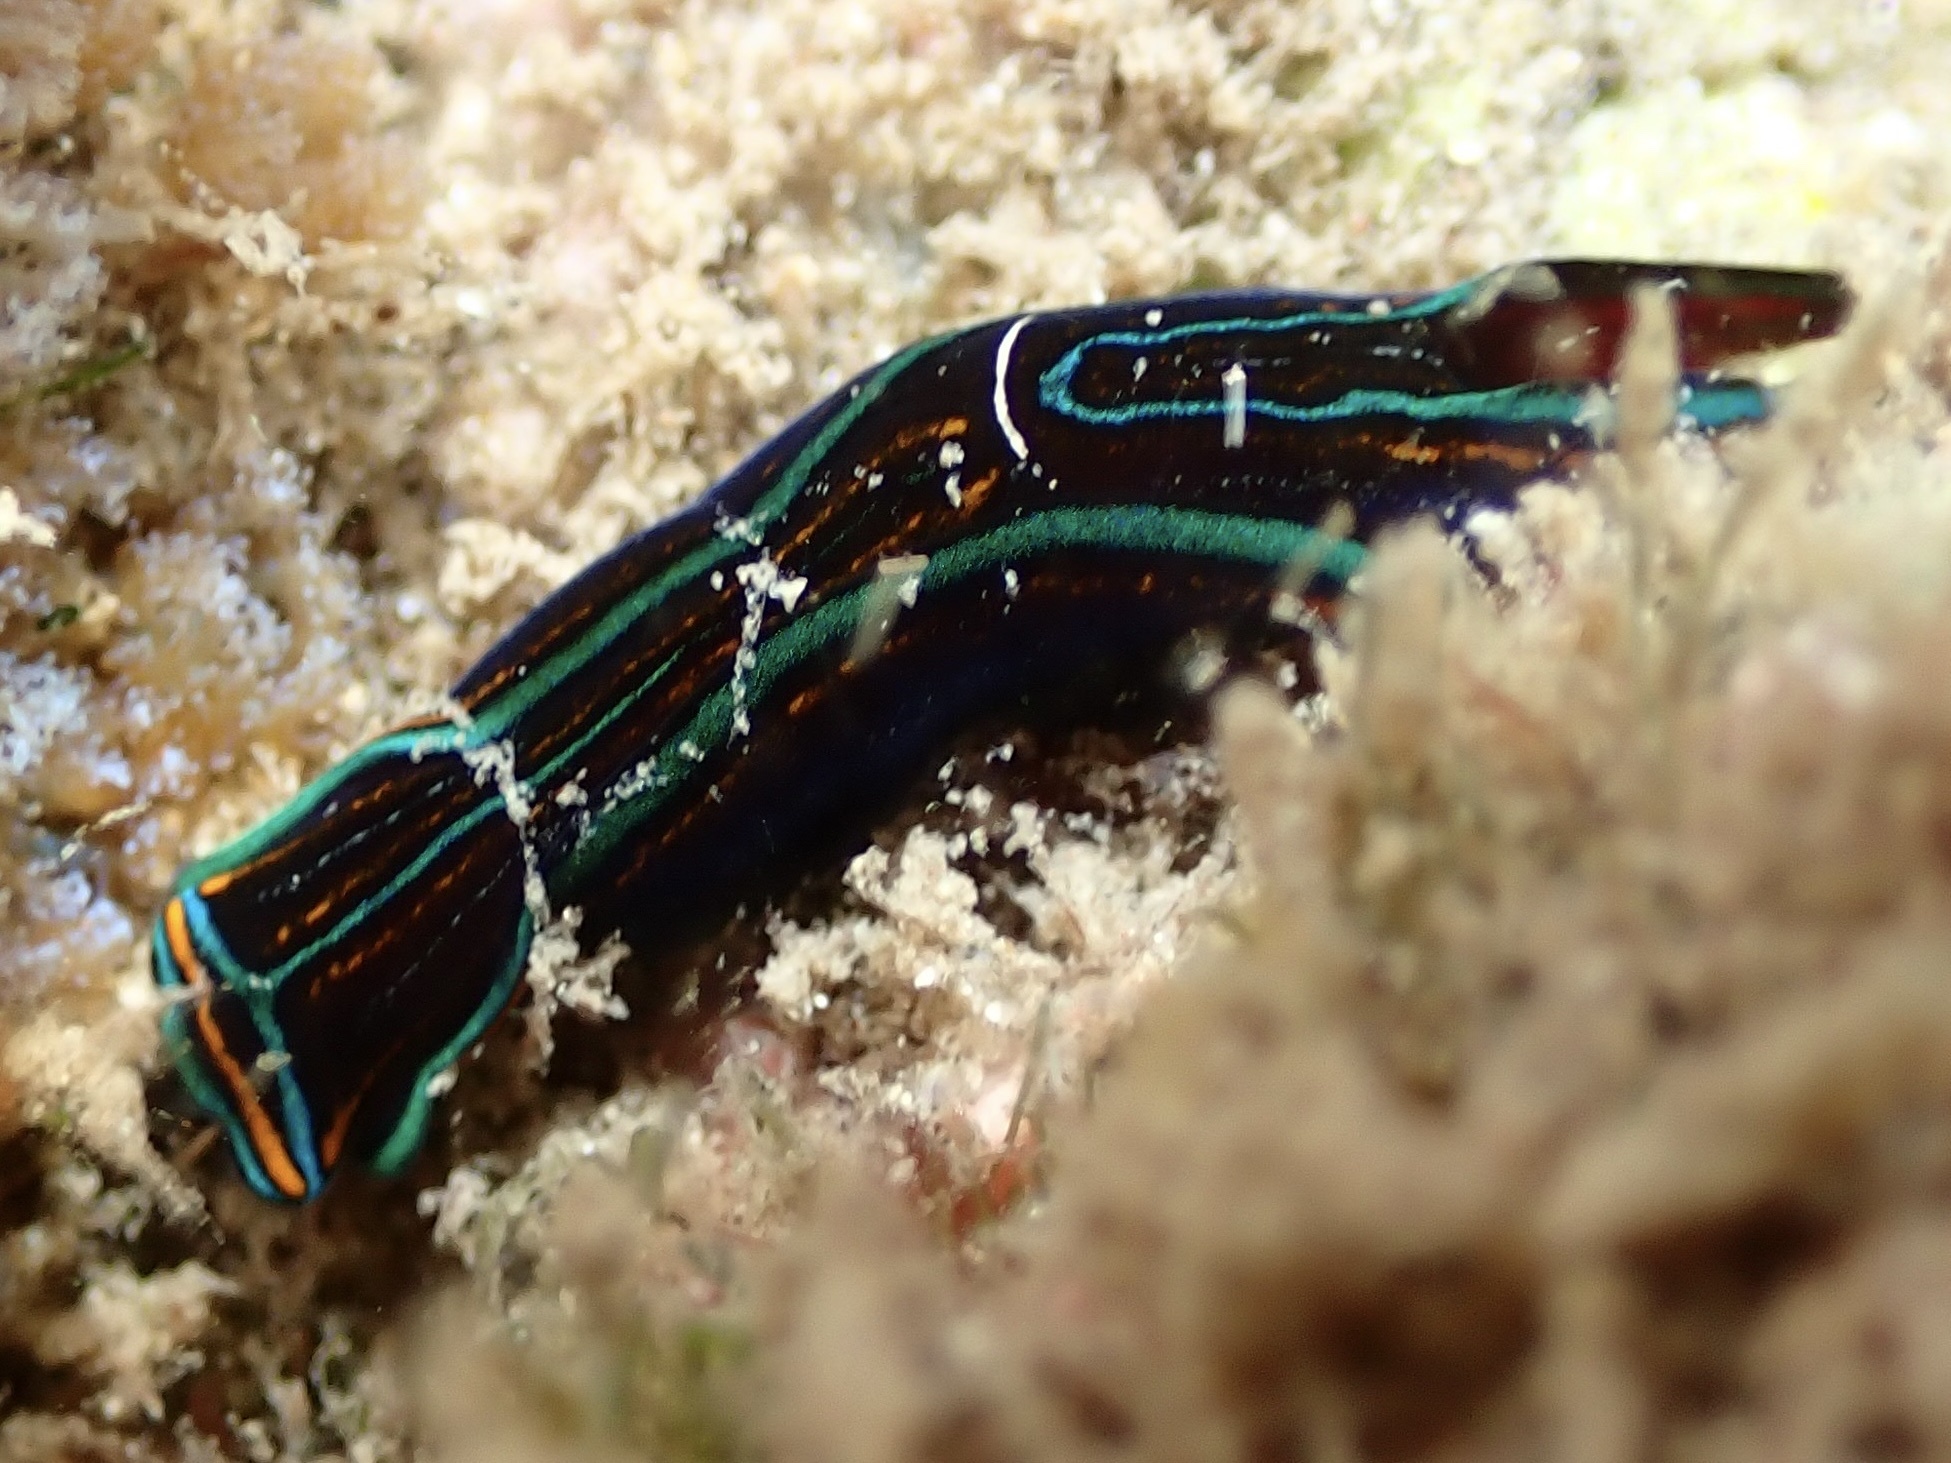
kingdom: Animalia
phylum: Mollusca
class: Gastropoda
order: Cephalaspidea
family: Aglajidae
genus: Chelidonura
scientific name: Chelidonura hirundinina
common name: Leech headshield slug
